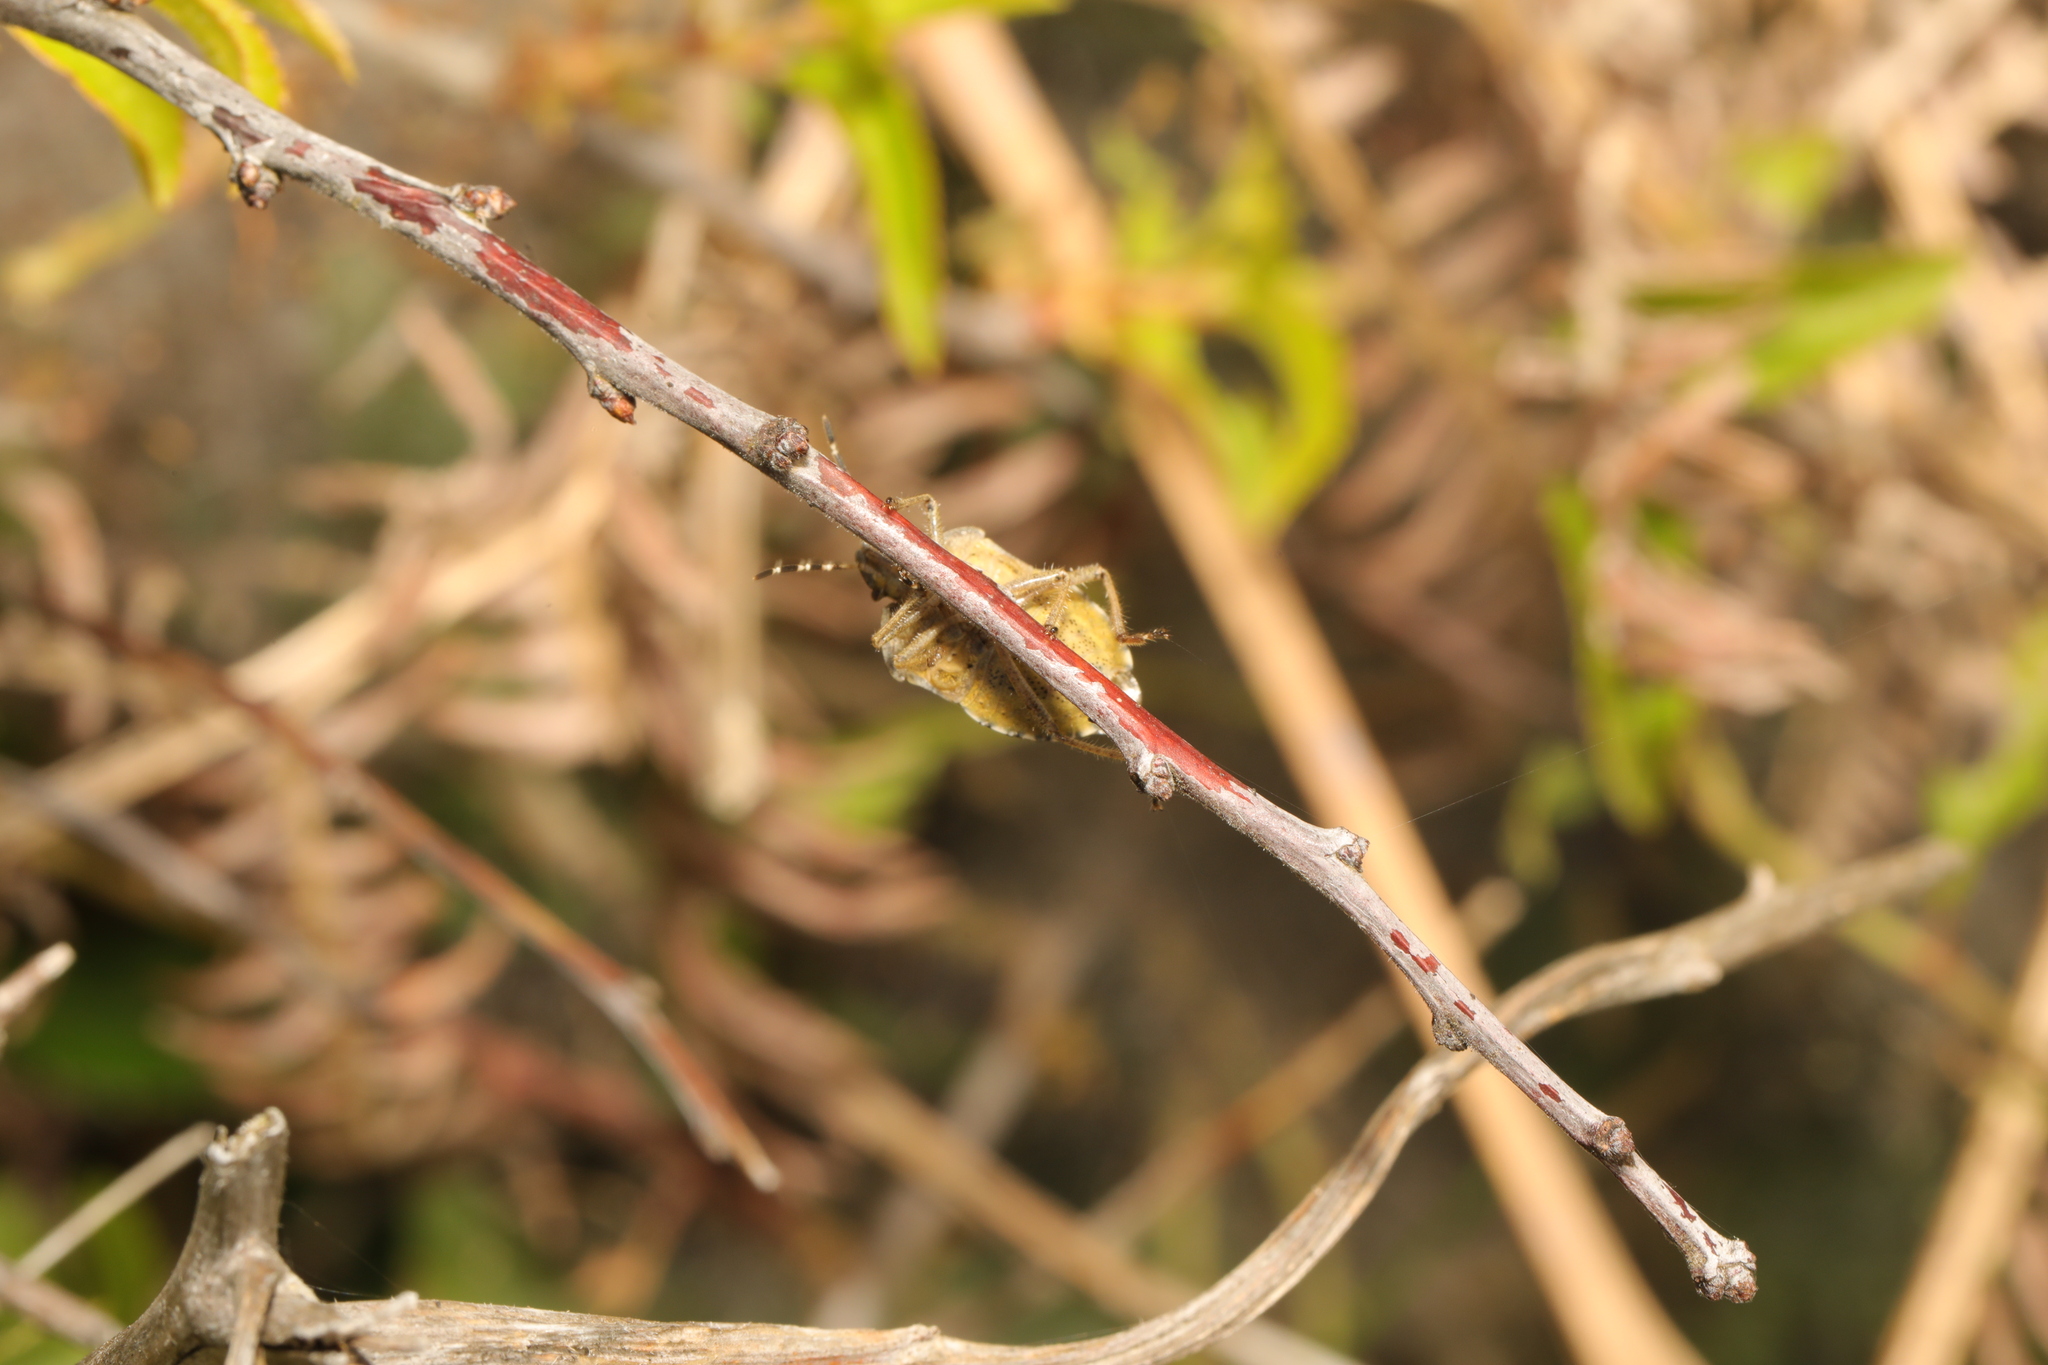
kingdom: Animalia
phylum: Arthropoda
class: Insecta
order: Hemiptera
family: Pentatomidae
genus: Dolycoris
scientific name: Dolycoris baccarum
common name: Sloe bug
